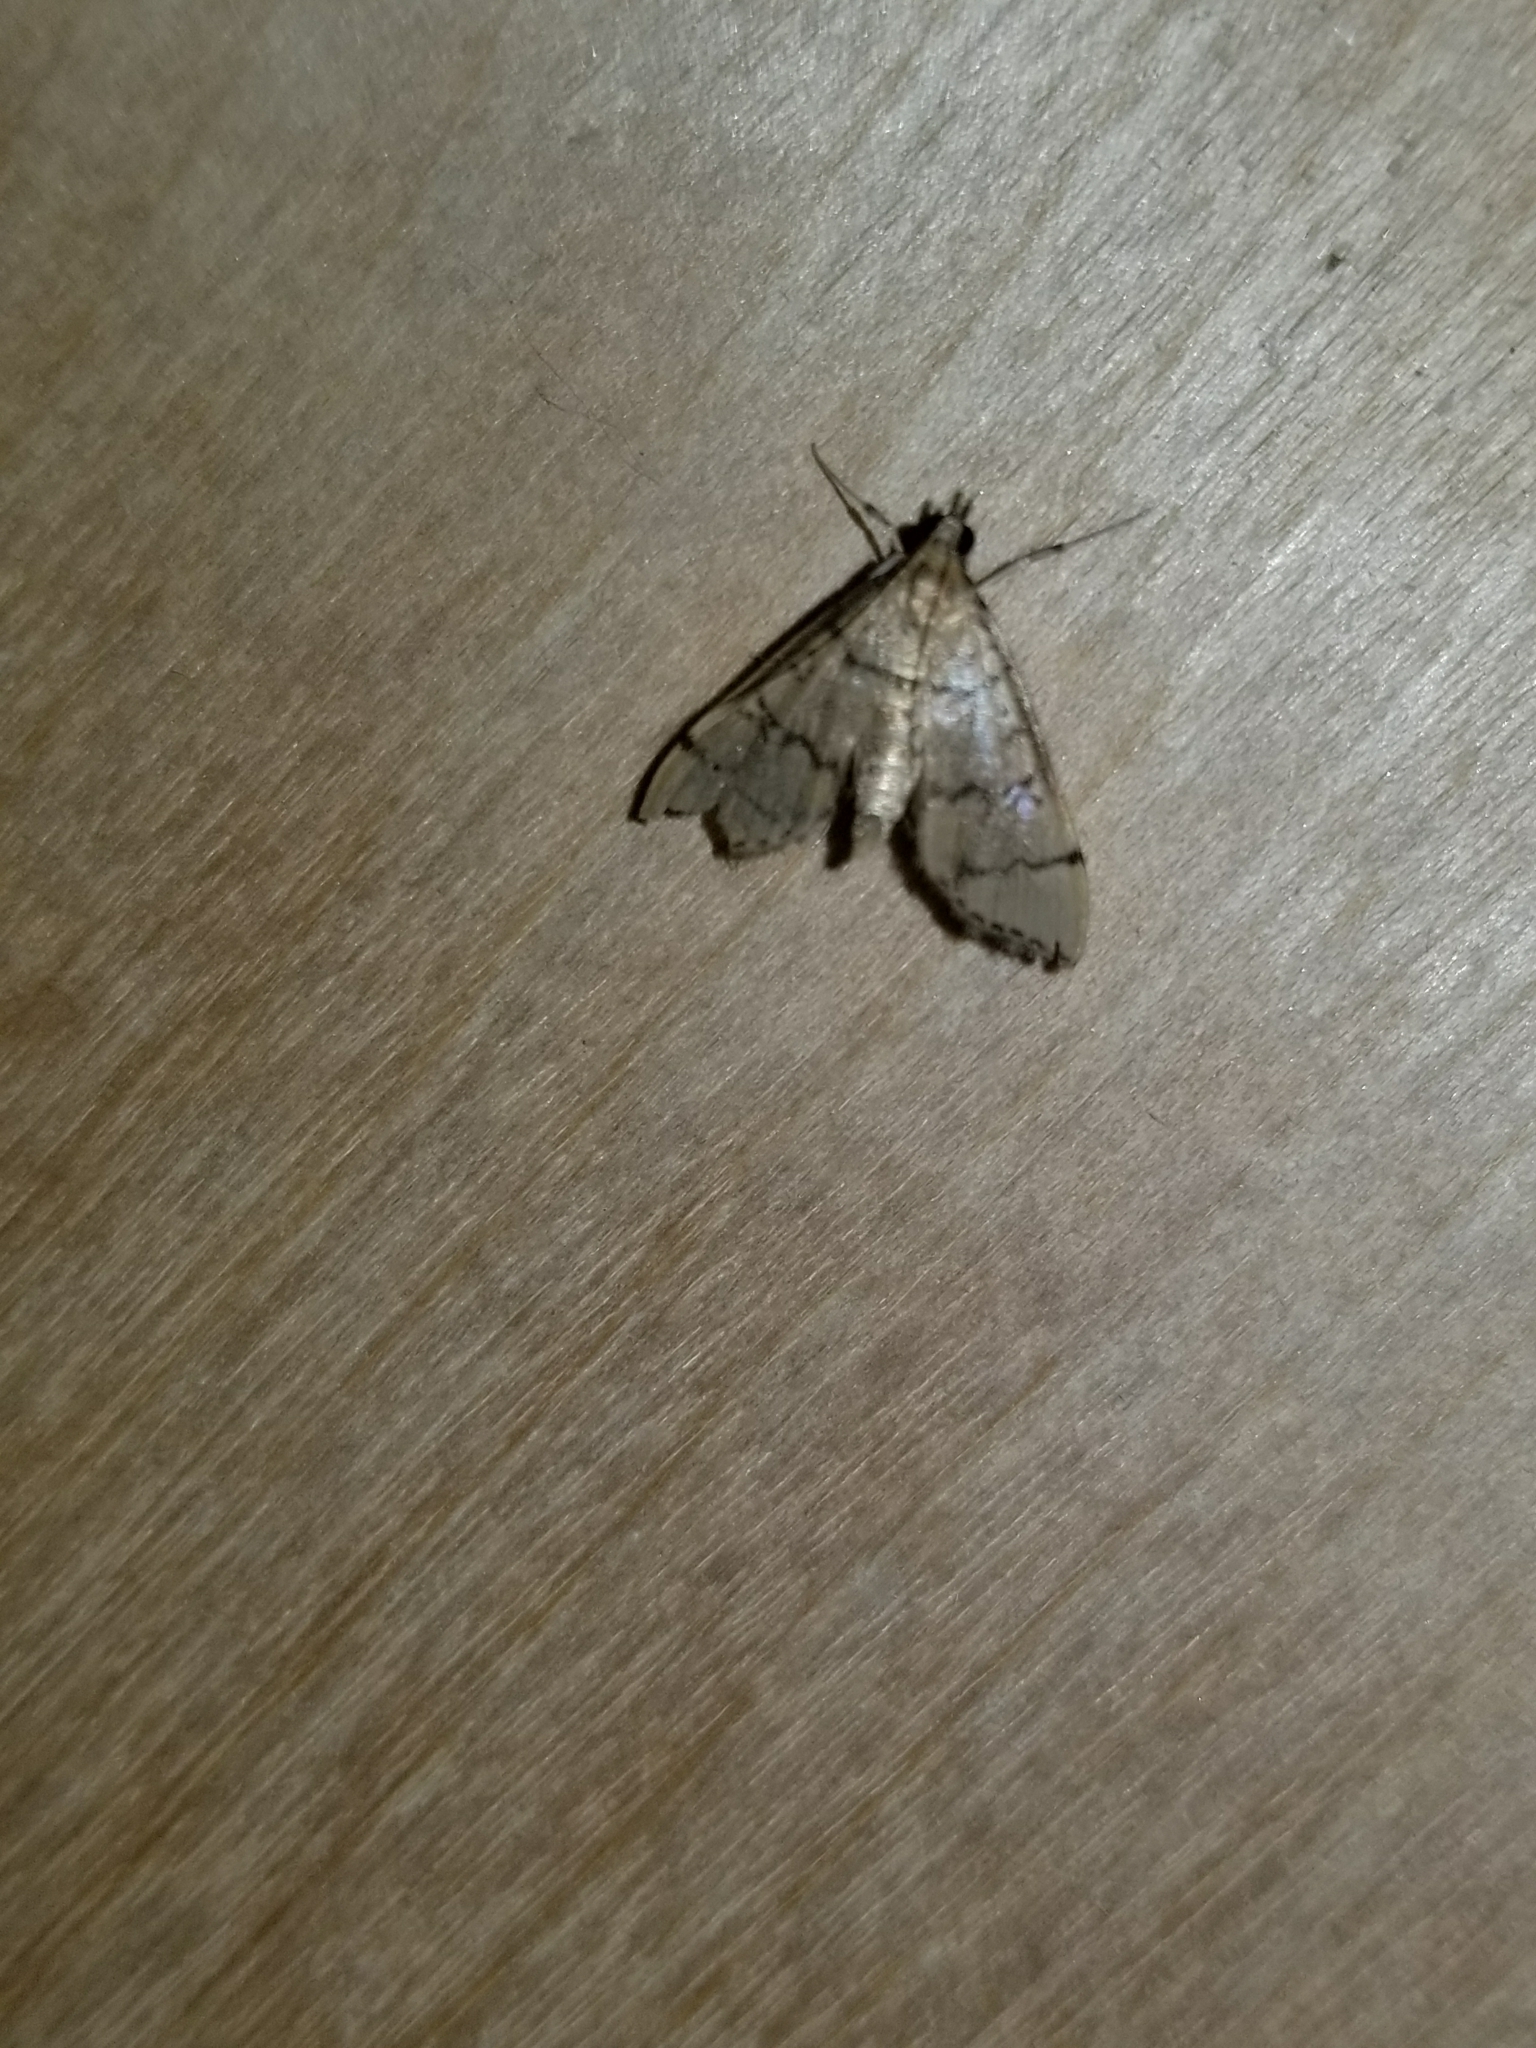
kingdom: Animalia
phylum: Arthropoda
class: Insecta
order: Lepidoptera
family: Crambidae
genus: Lamprosema
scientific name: Lamprosema Blepharomastix ranalis
